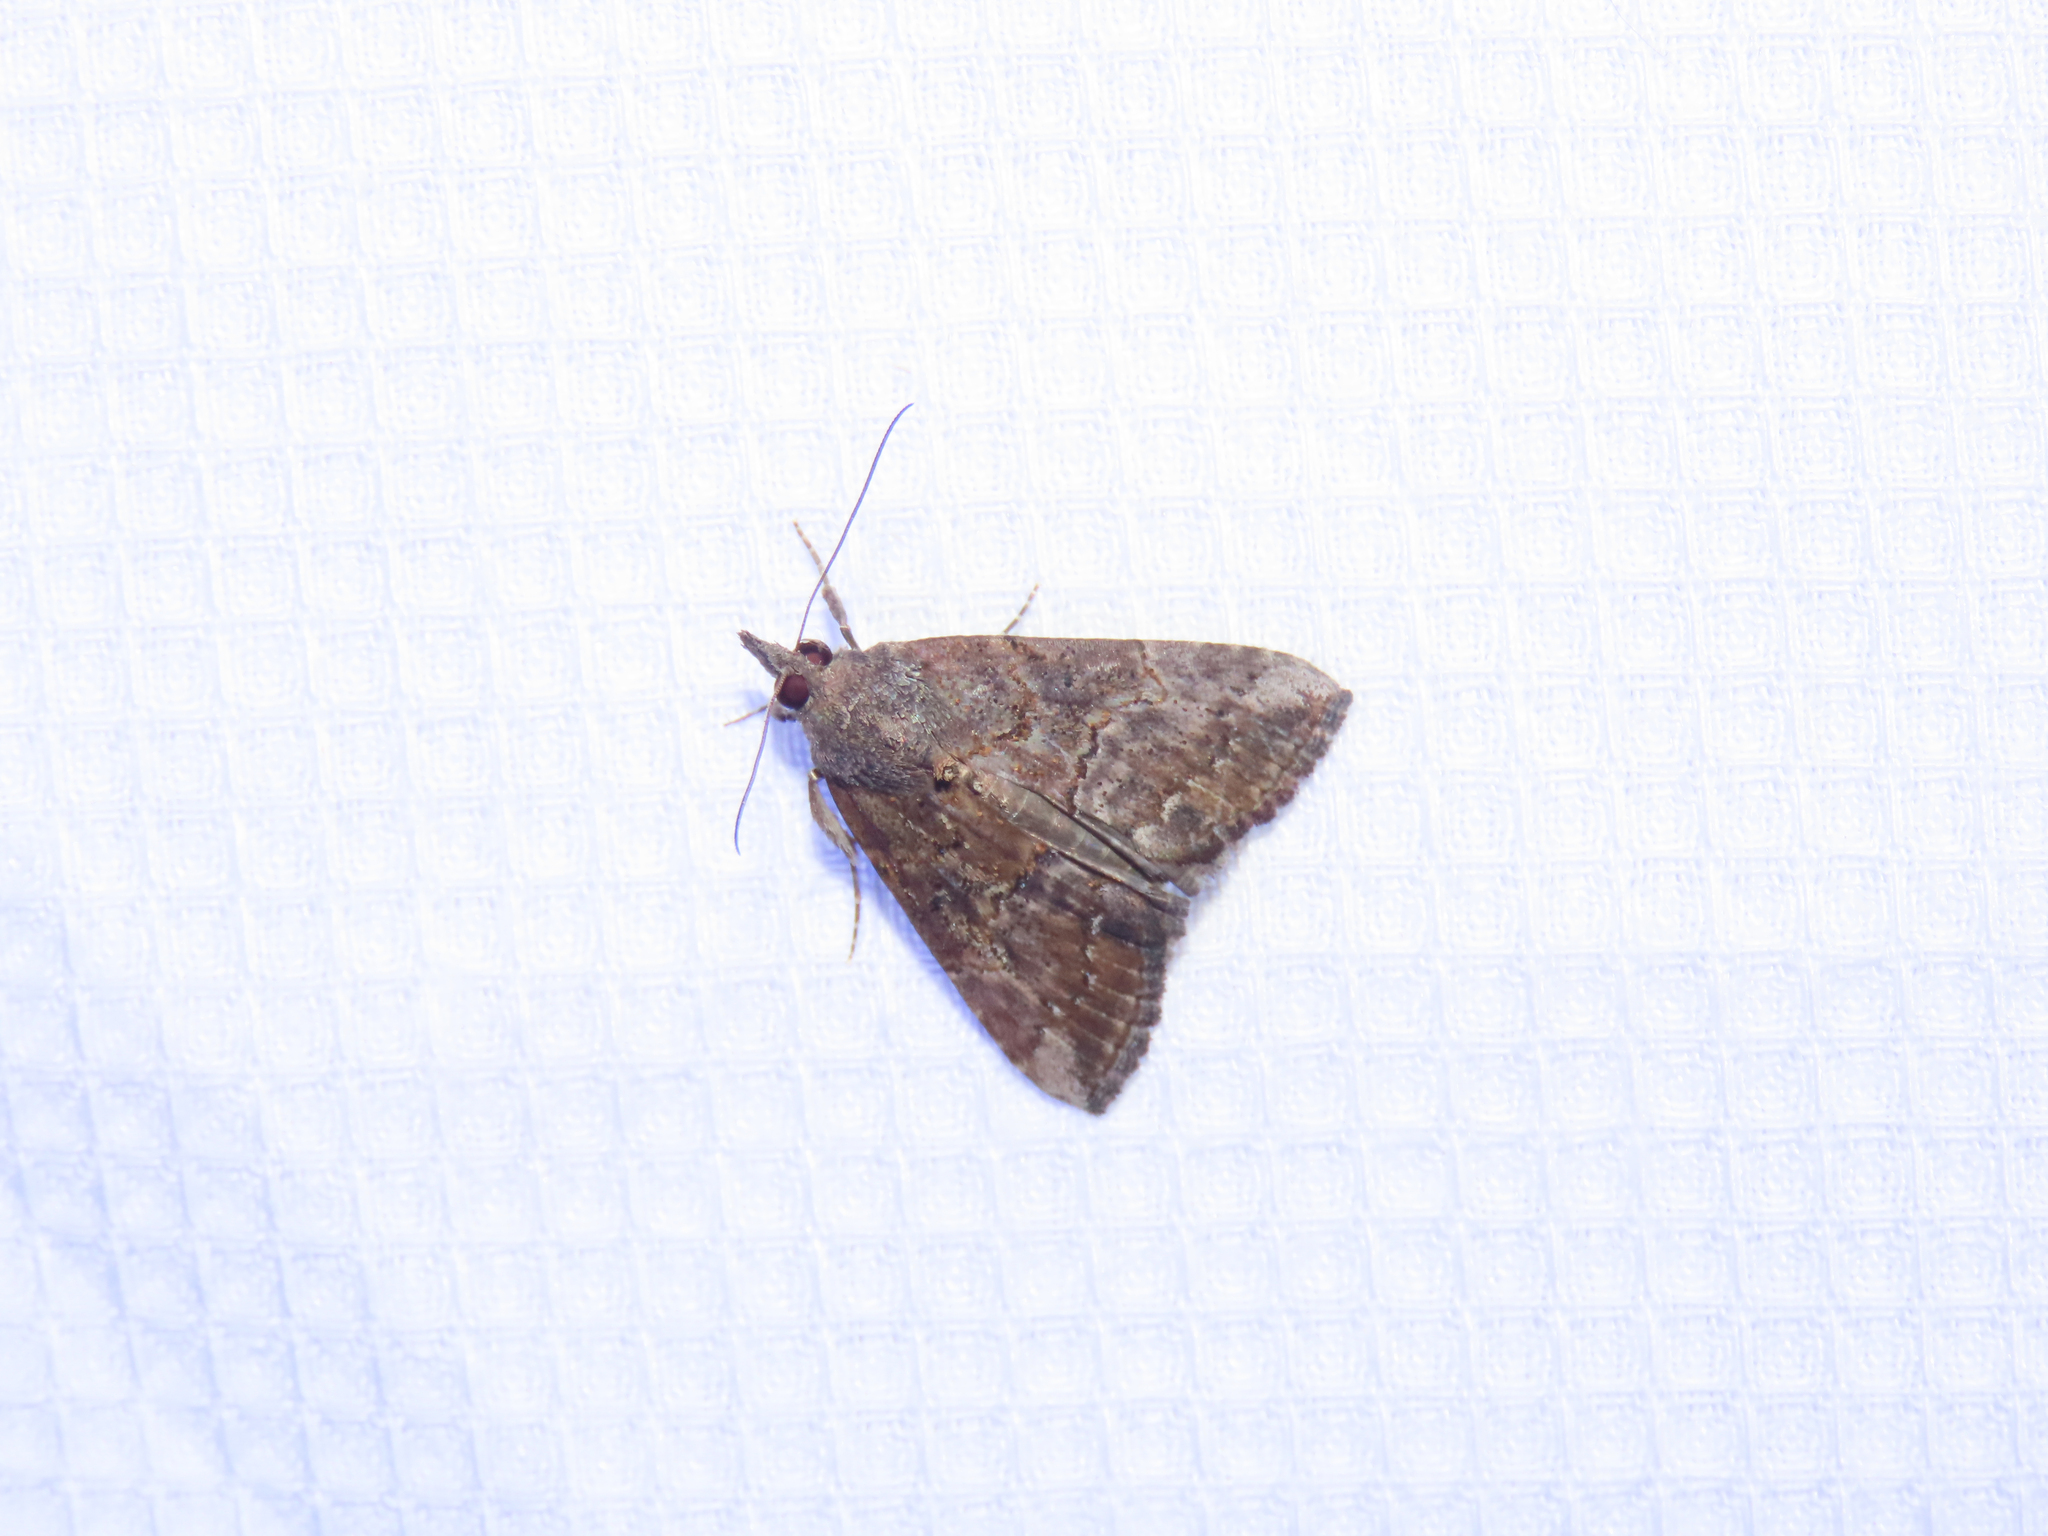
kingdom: Animalia
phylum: Arthropoda
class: Insecta
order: Lepidoptera
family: Erebidae
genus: Hypena
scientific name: Hypena scabra
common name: Green cloverworm
